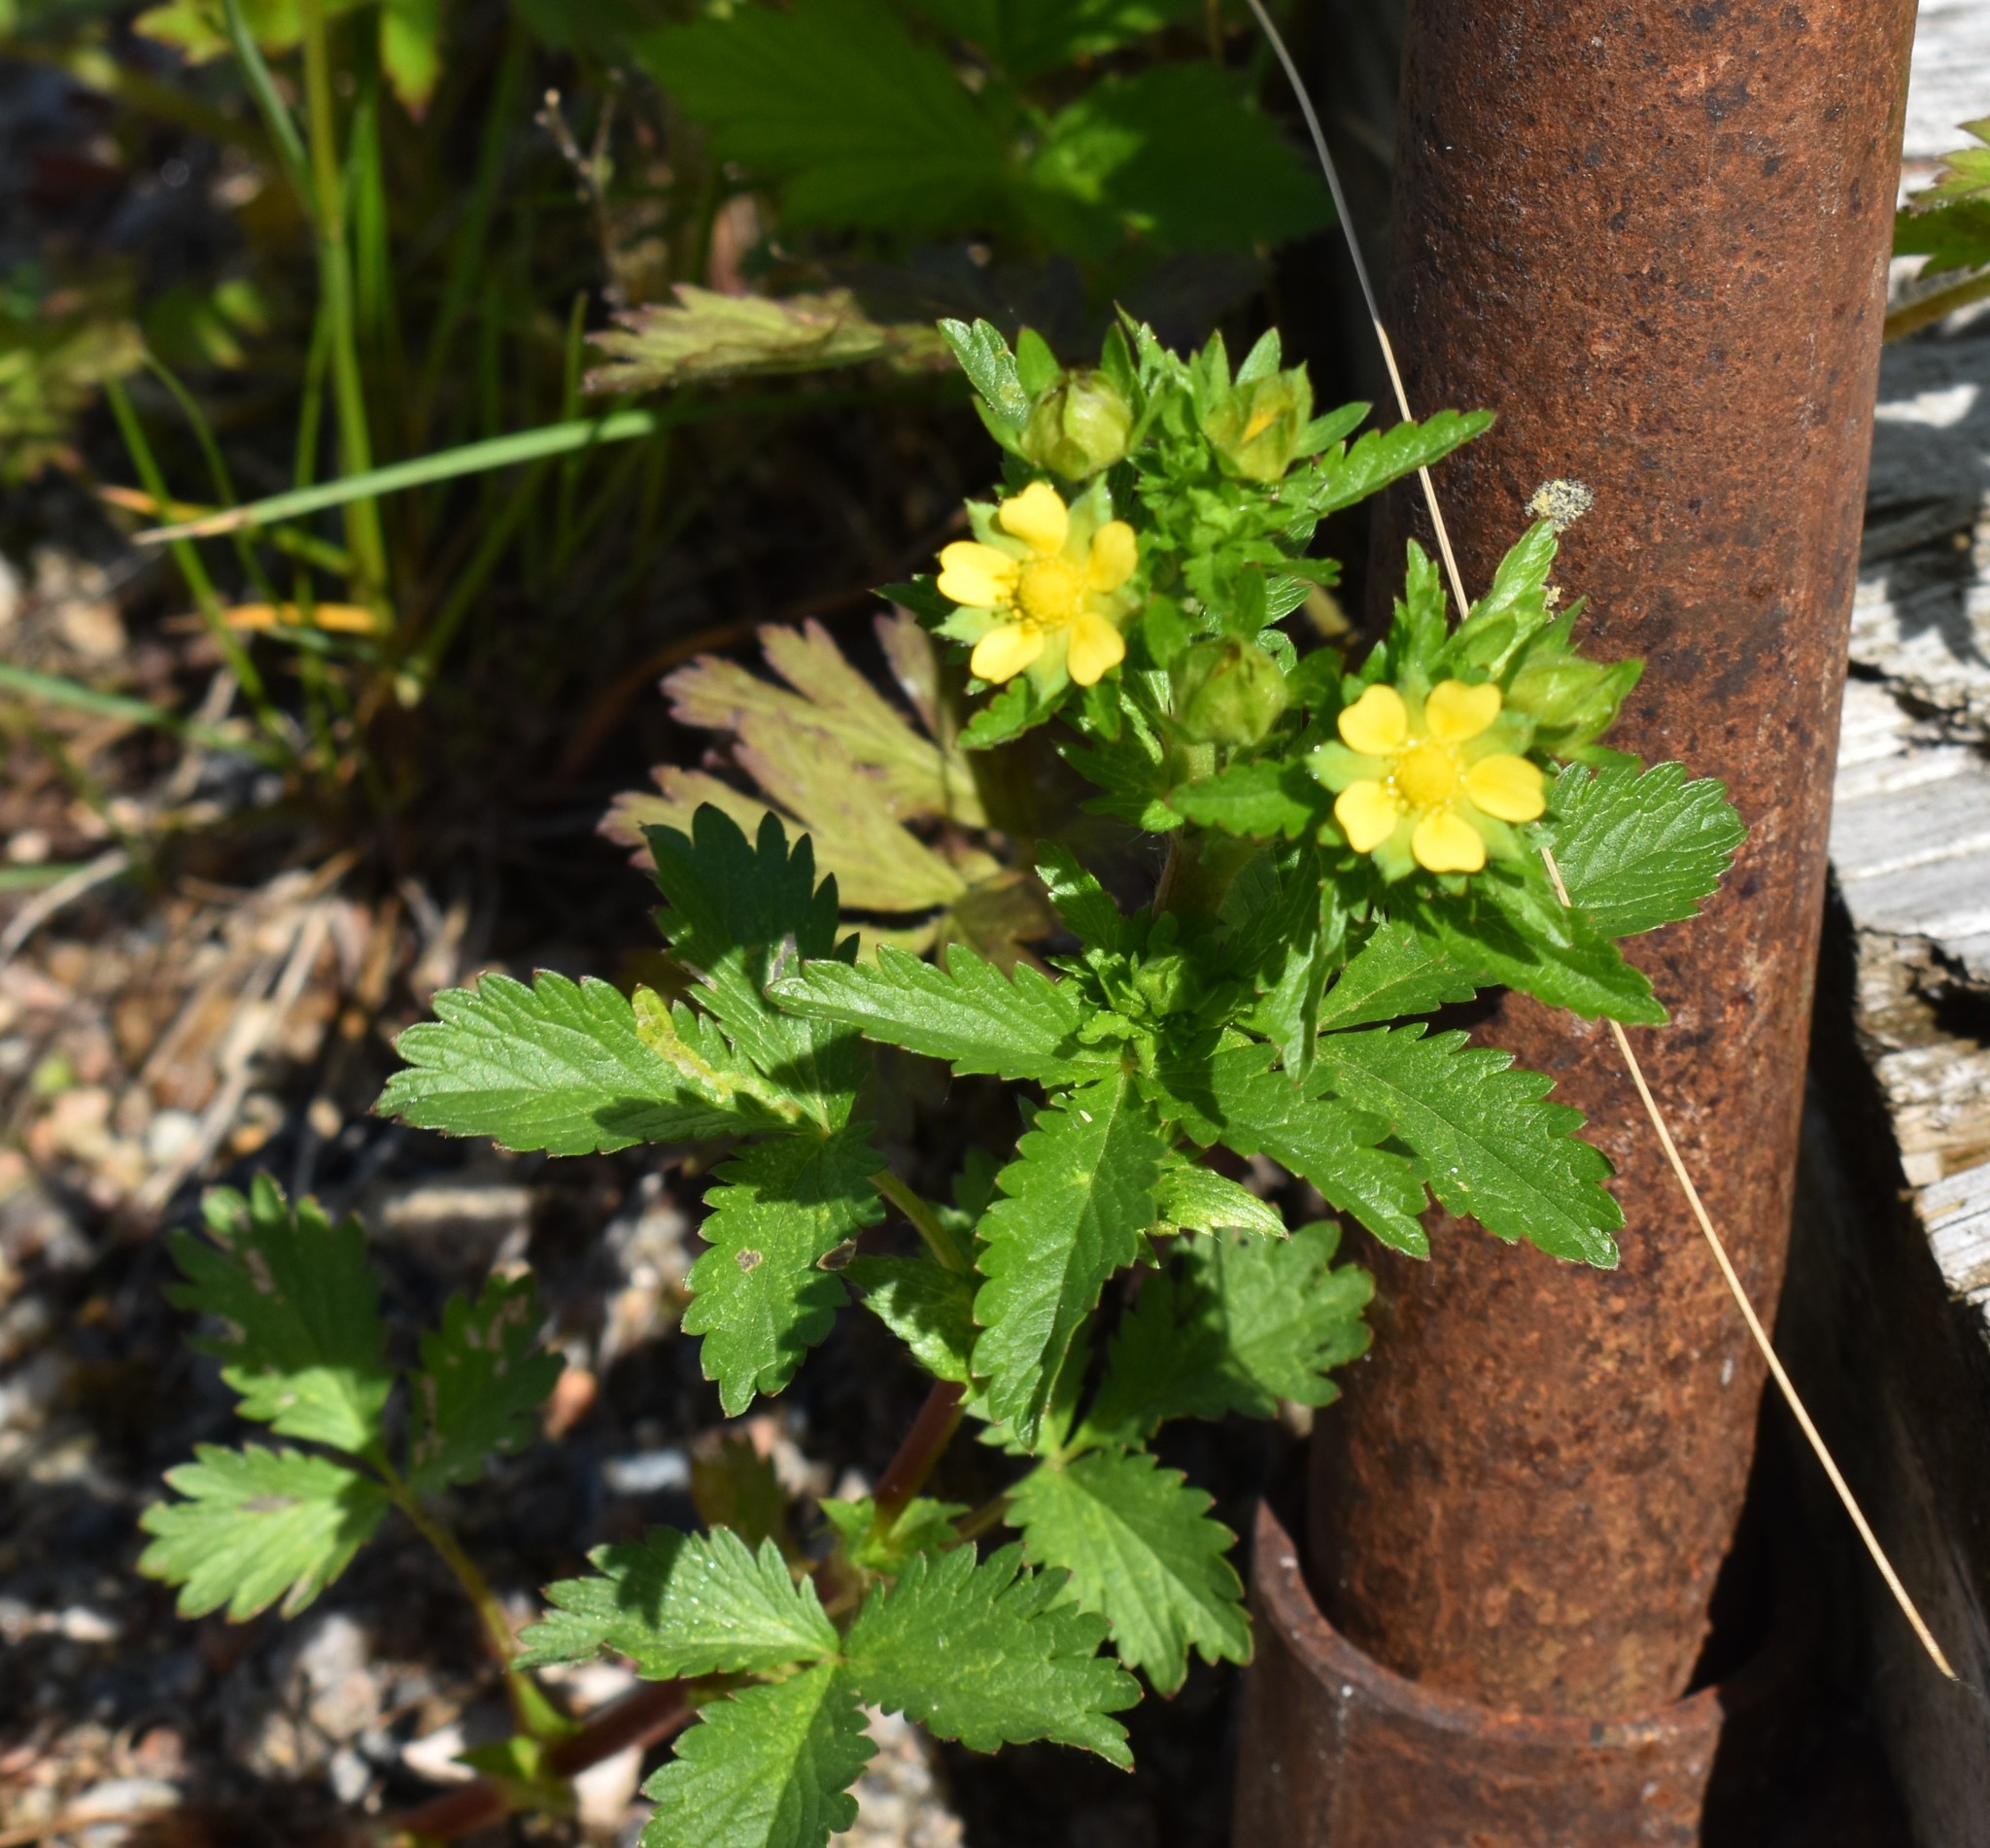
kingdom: Plantae
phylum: Tracheophyta
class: Magnoliopsida
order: Rosales
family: Rosaceae
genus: Potentilla
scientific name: Potentilla norvegica
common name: Ternate-leaved cinquefoil
